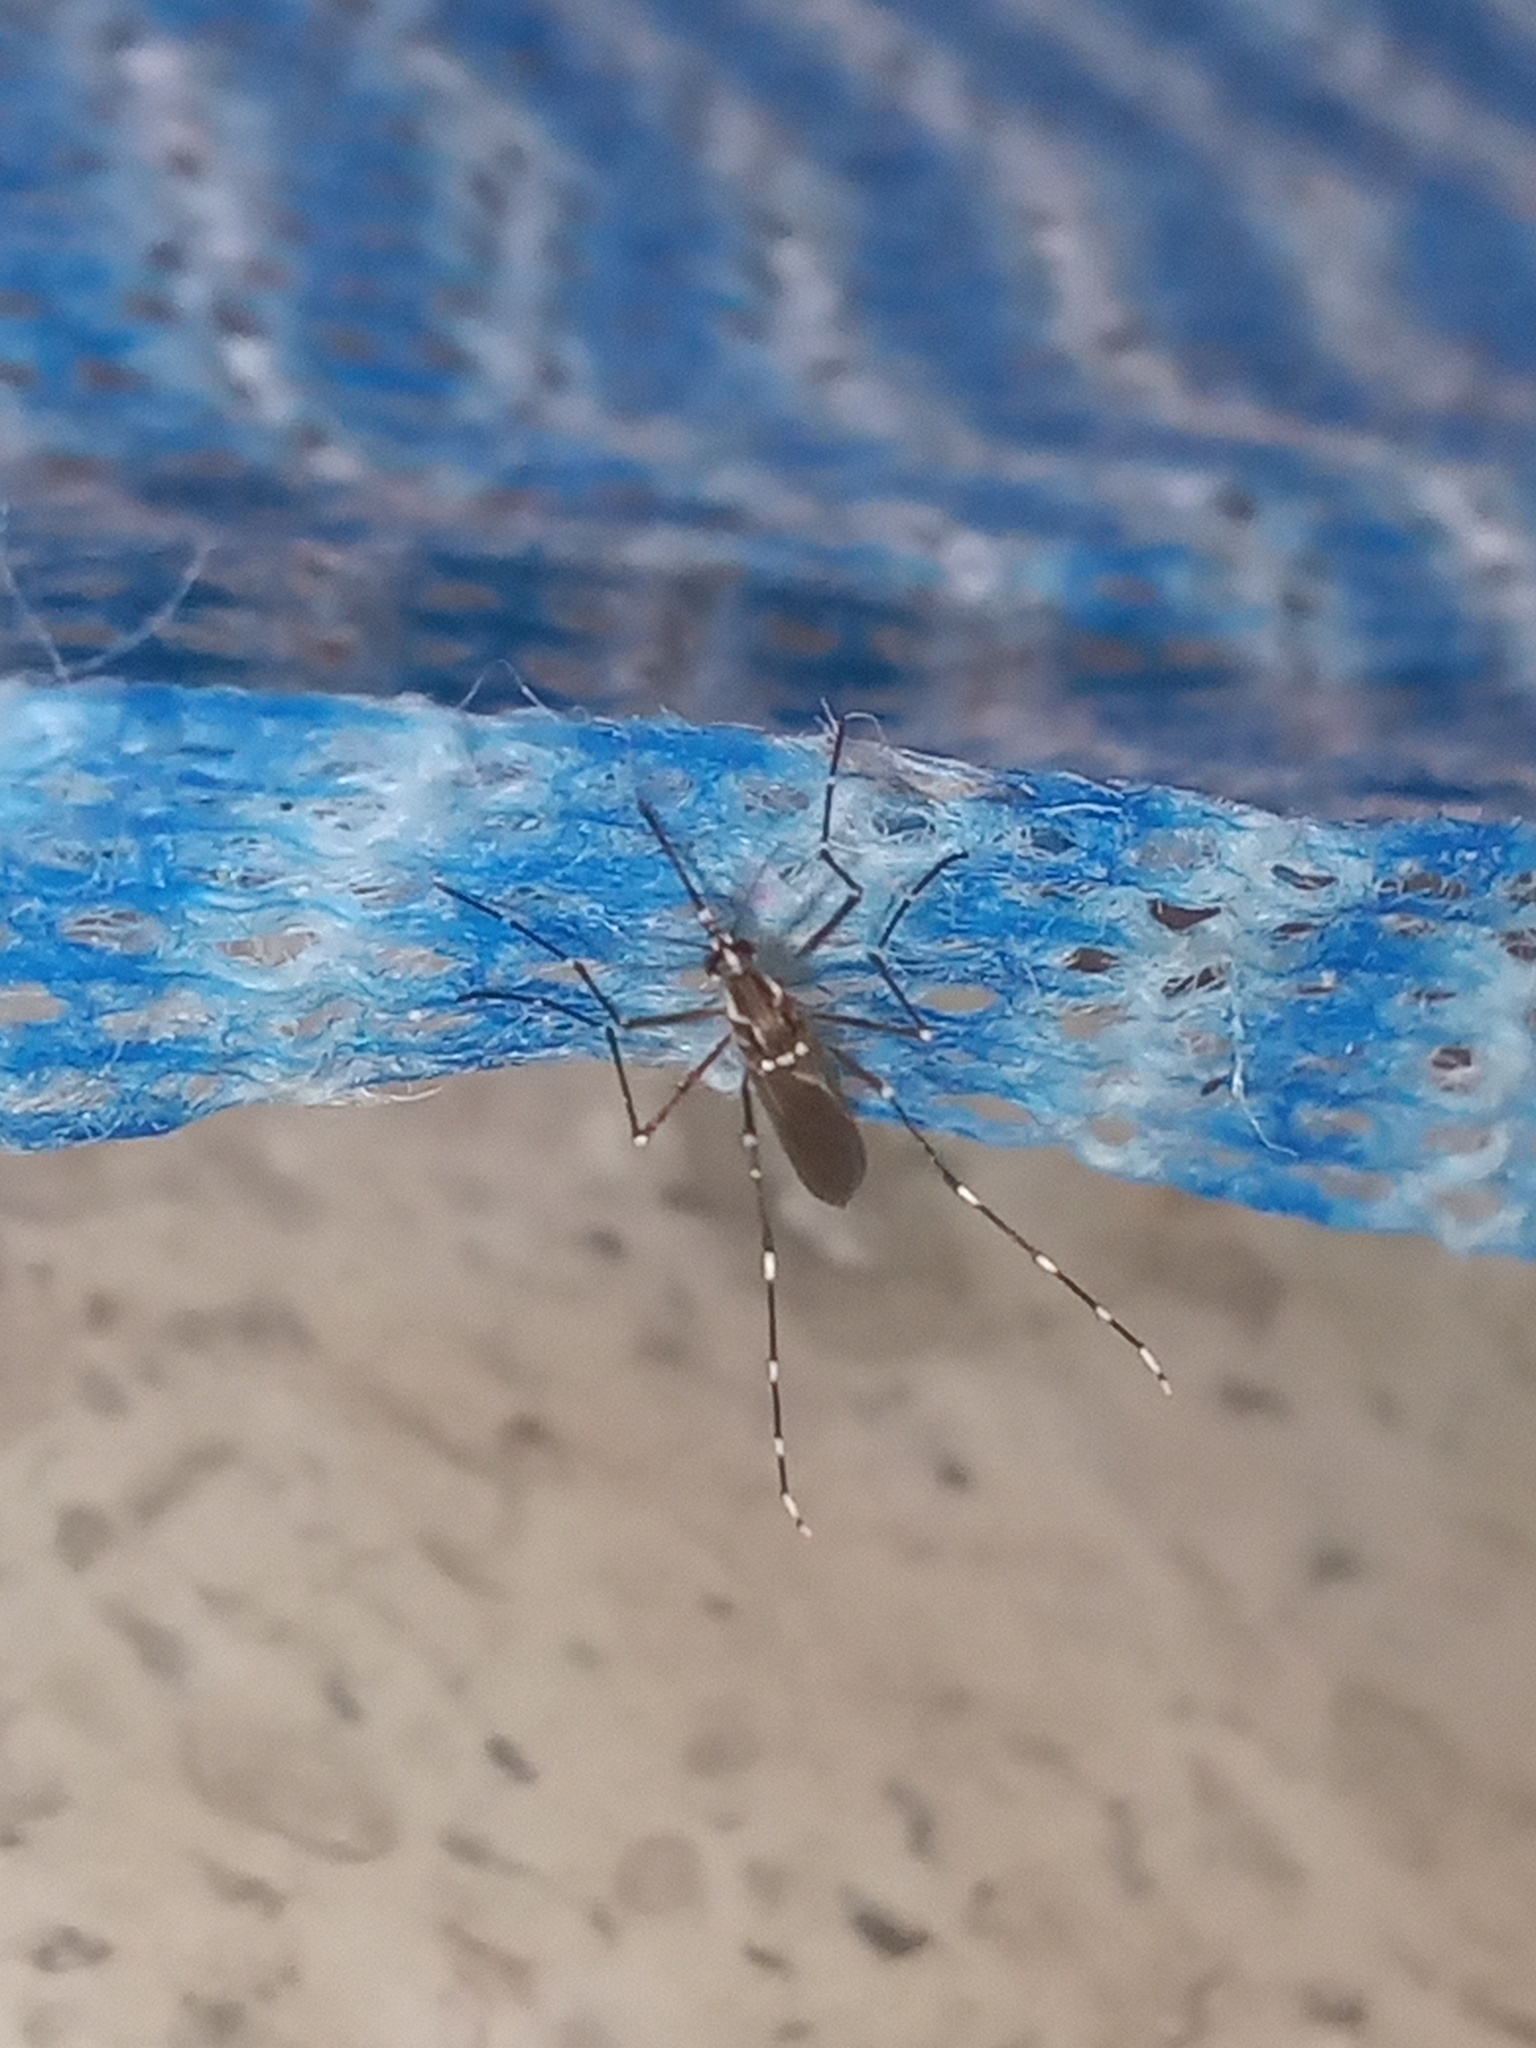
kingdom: Animalia
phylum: Arthropoda
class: Insecta
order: Diptera
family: Culicidae
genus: Aedes
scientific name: Aedes aegypti
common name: Yellow fever mosquito
